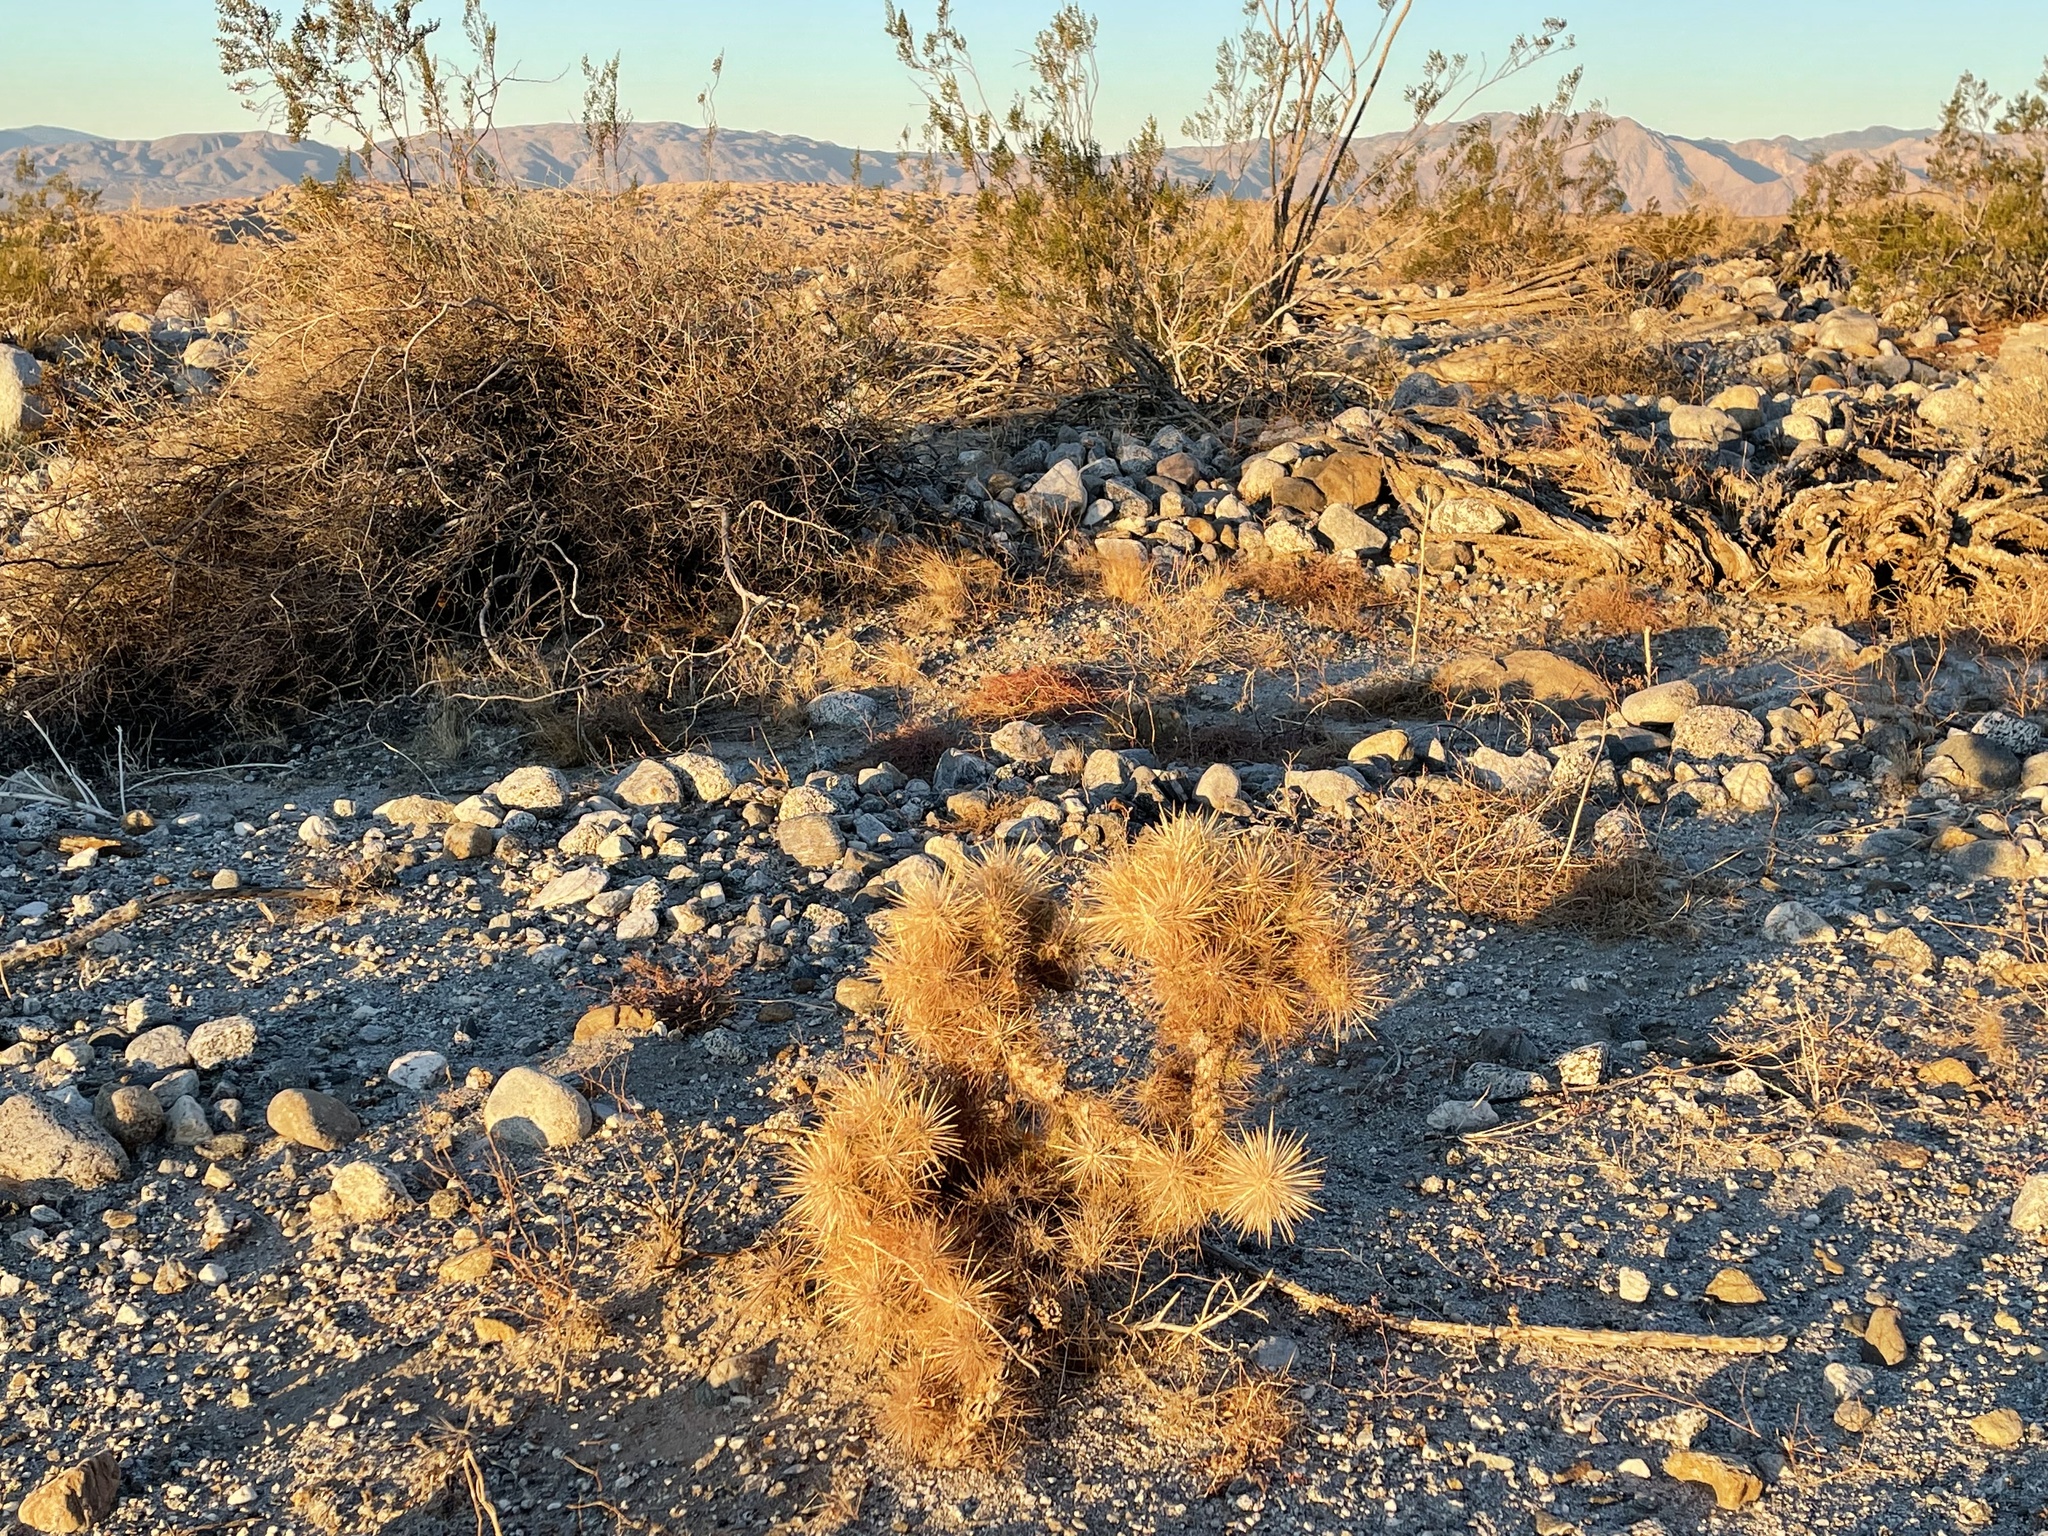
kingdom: Plantae
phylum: Tracheophyta
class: Magnoliopsida
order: Caryophyllales
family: Cactaceae
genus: Cylindropuntia
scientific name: Cylindropuntia echinocarpa
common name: Ground cholla
